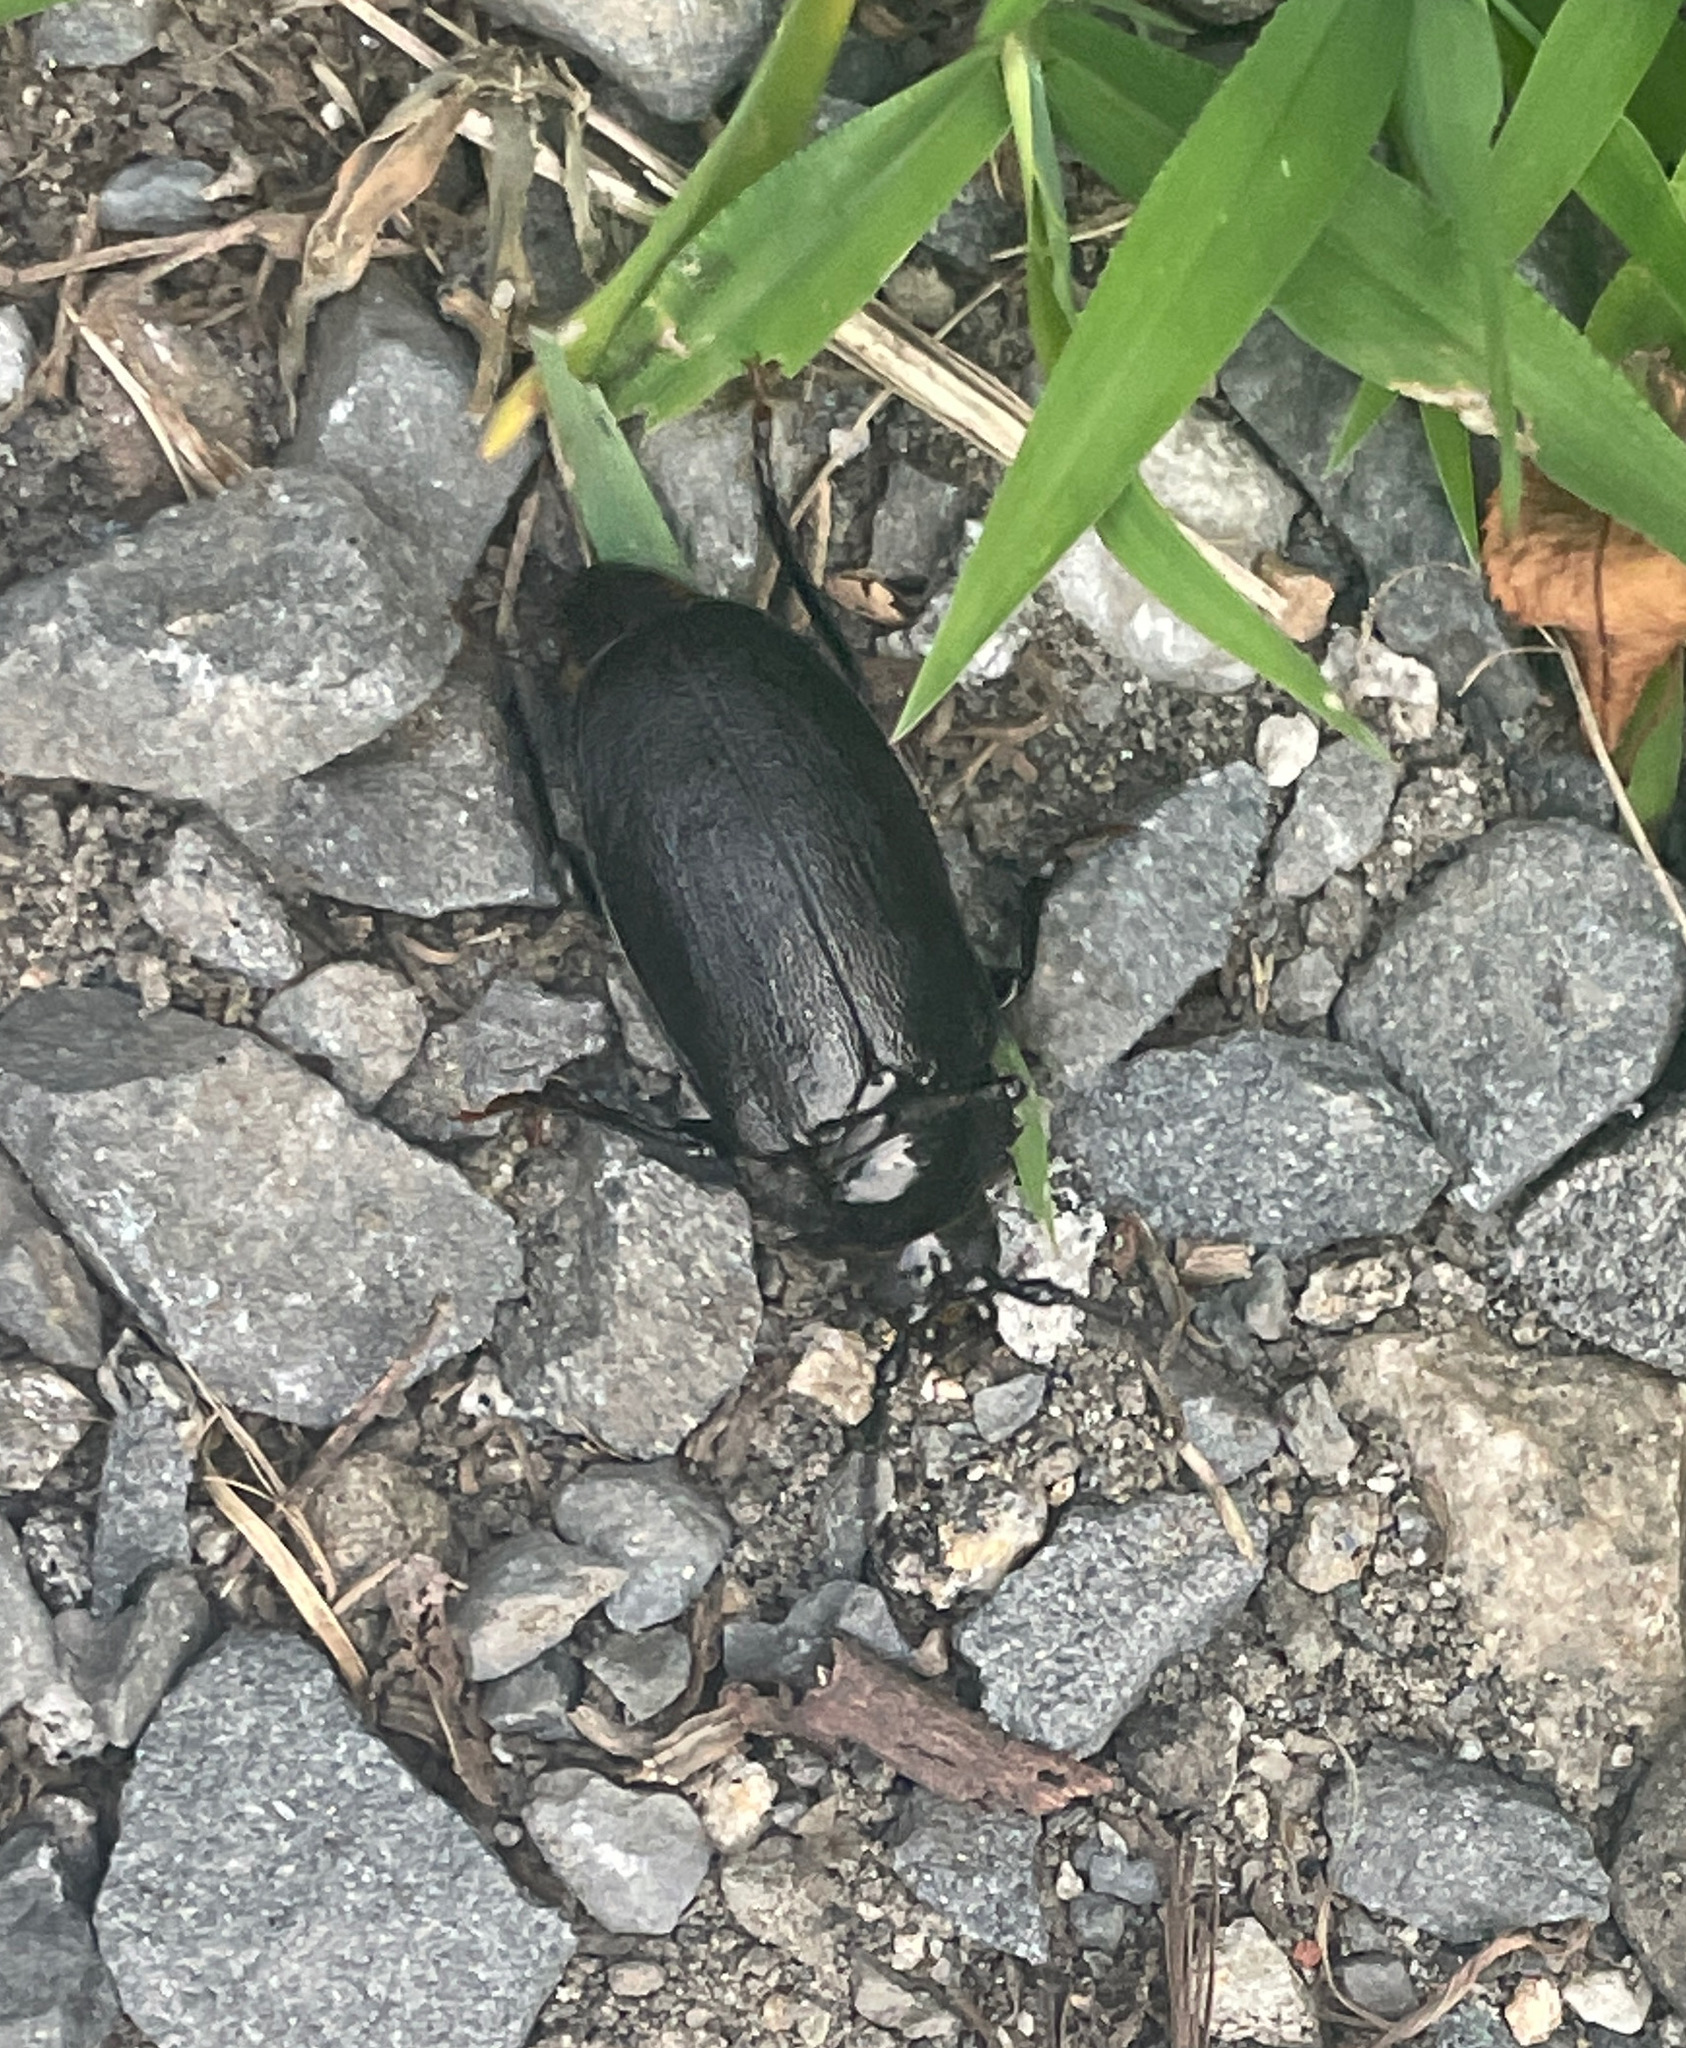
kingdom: Animalia
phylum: Arthropoda
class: Insecta
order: Coleoptera
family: Cerambycidae
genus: Prionus
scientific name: Prionus laticollis
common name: Broad necked prionus
